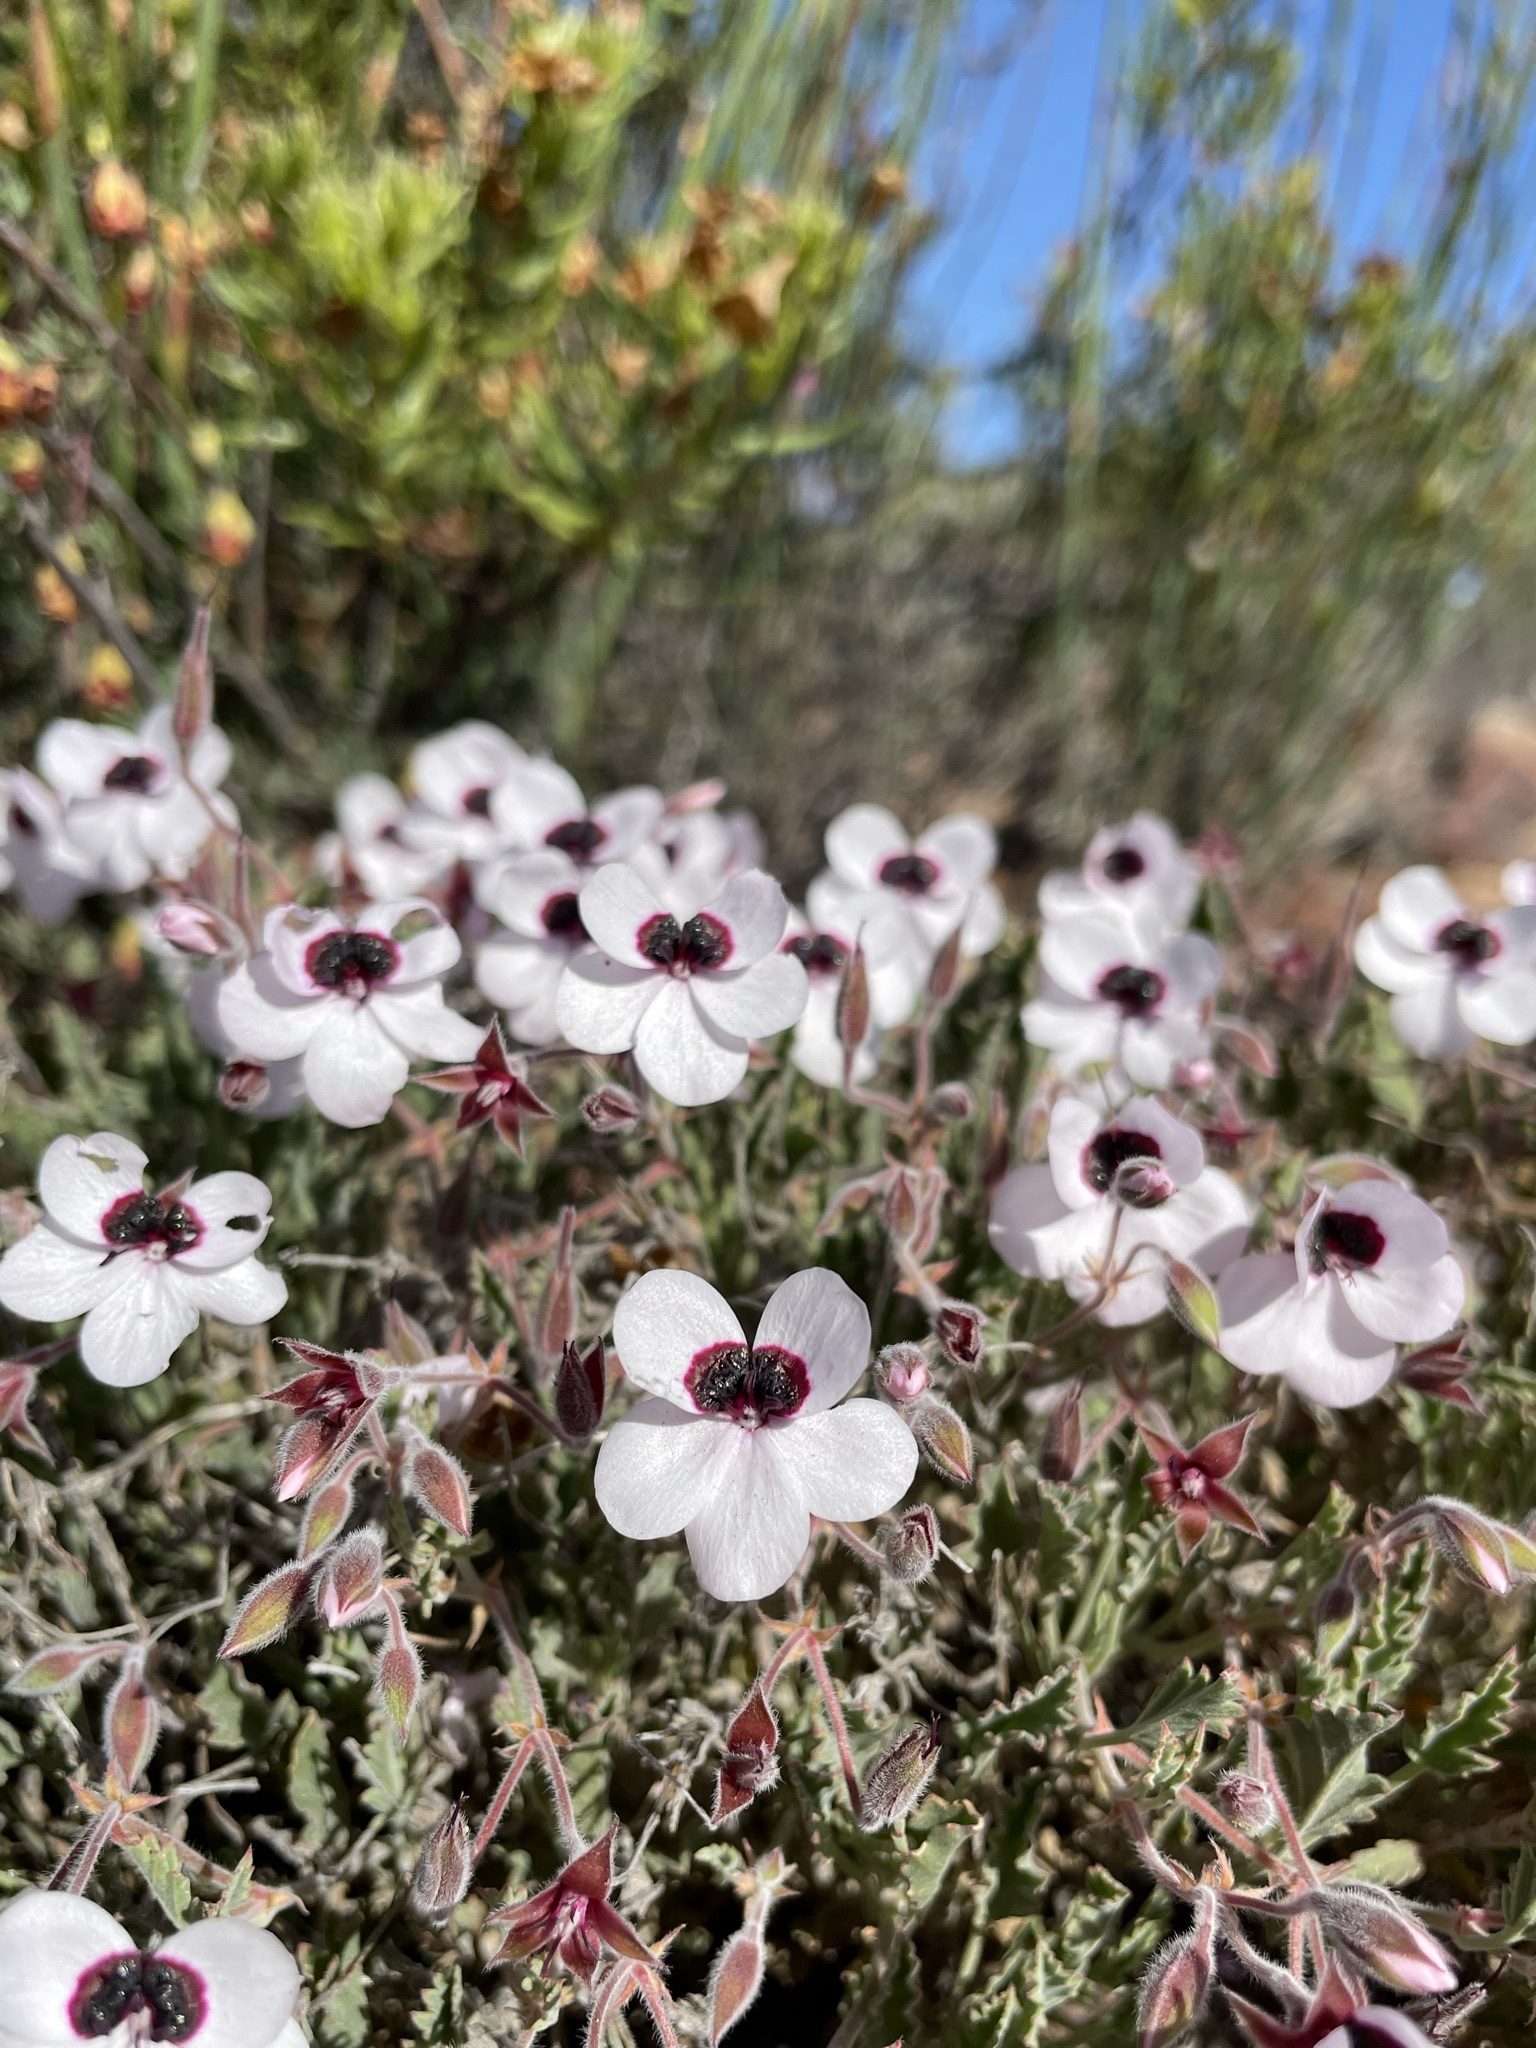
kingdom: Plantae
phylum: Tracheophyta
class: Magnoliopsida
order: Geraniales
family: Geraniaceae
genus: Pelargonium
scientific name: Pelargonium tricolor
